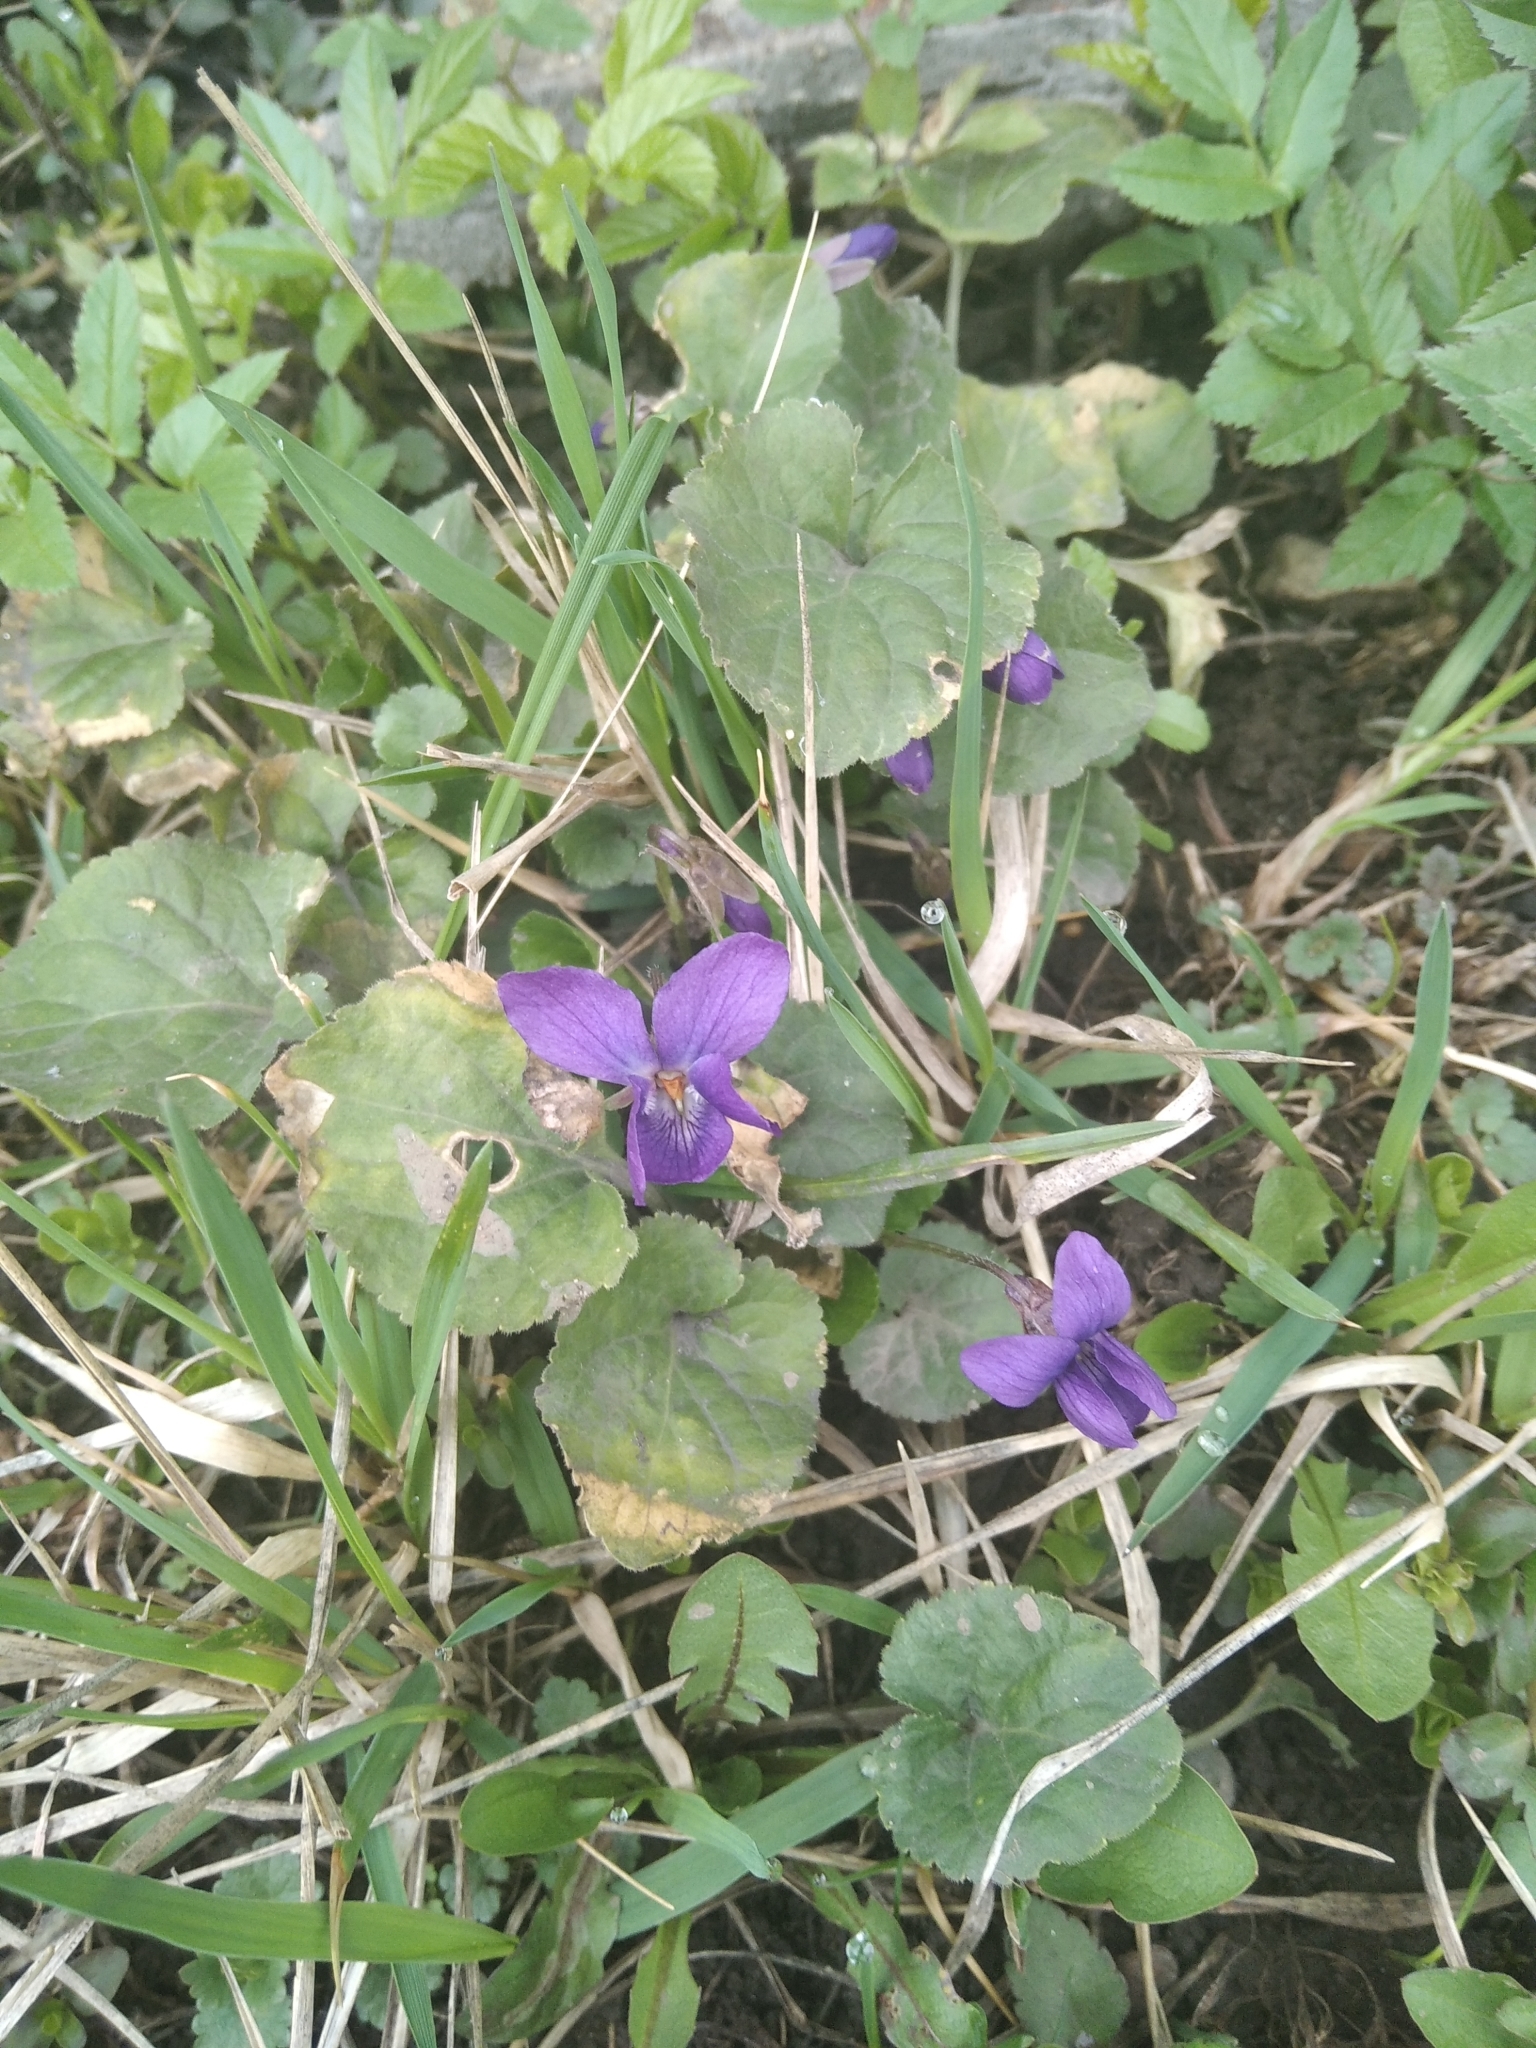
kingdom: Plantae
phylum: Tracheophyta
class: Magnoliopsida
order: Malpighiales
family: Violaceae
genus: Viola
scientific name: Viola odorata
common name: Sweet violet
